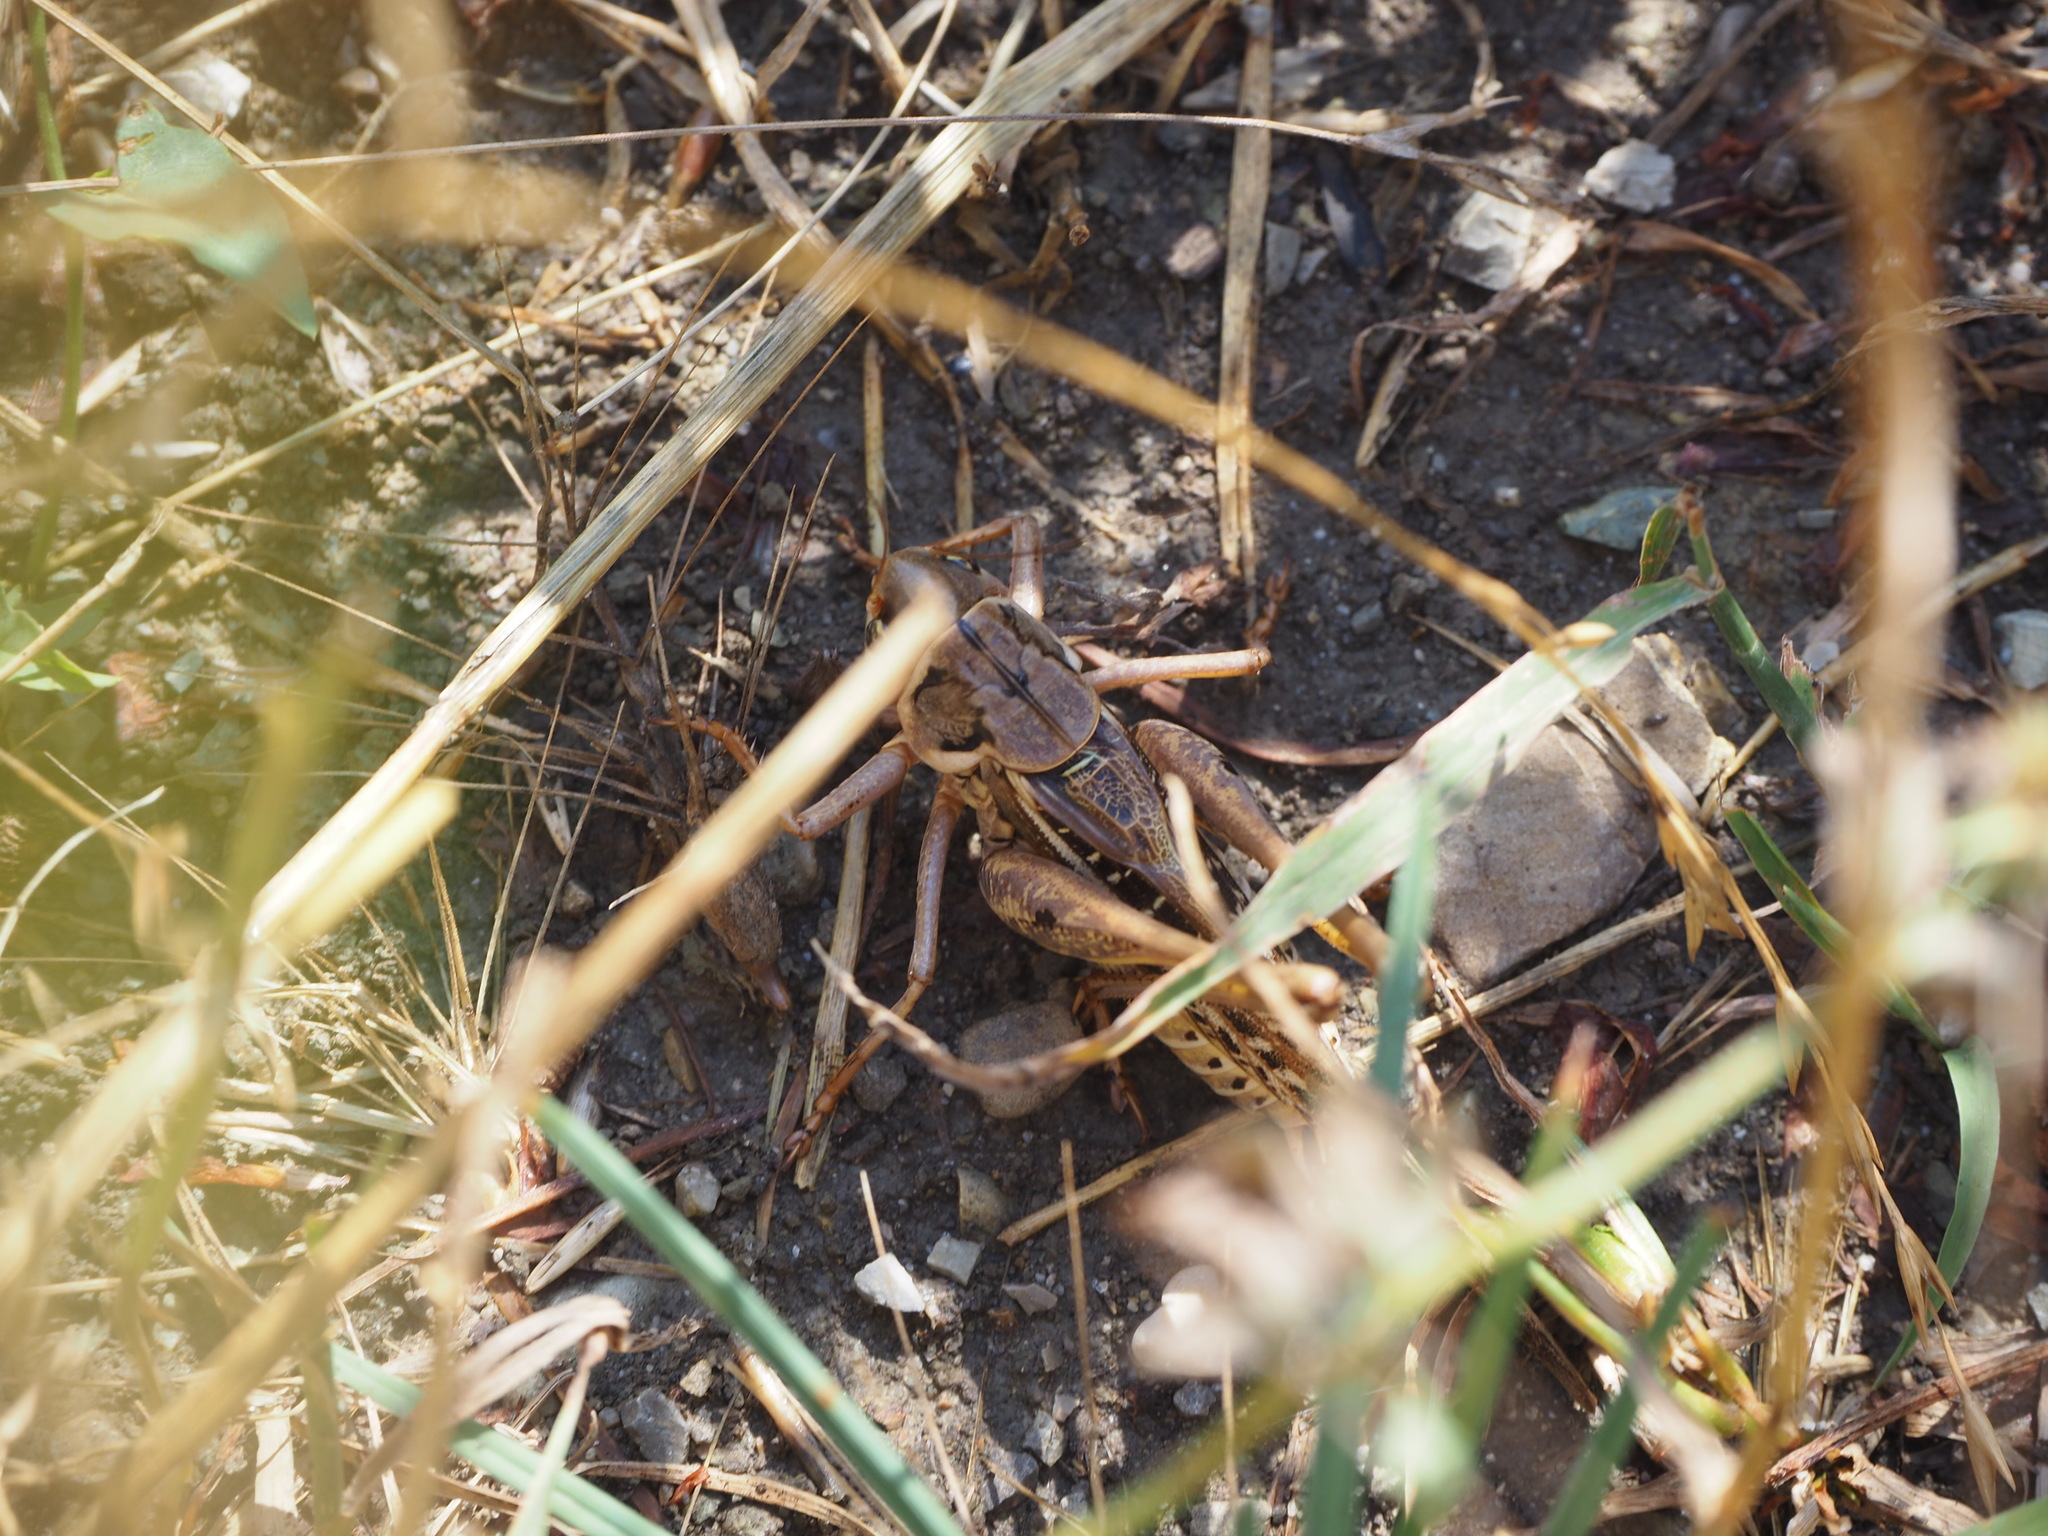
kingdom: Animalia
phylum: Arthropoda
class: Insecta
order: Orthoptera
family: Tettigoniidae
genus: Decticus
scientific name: Decticus albifrons
